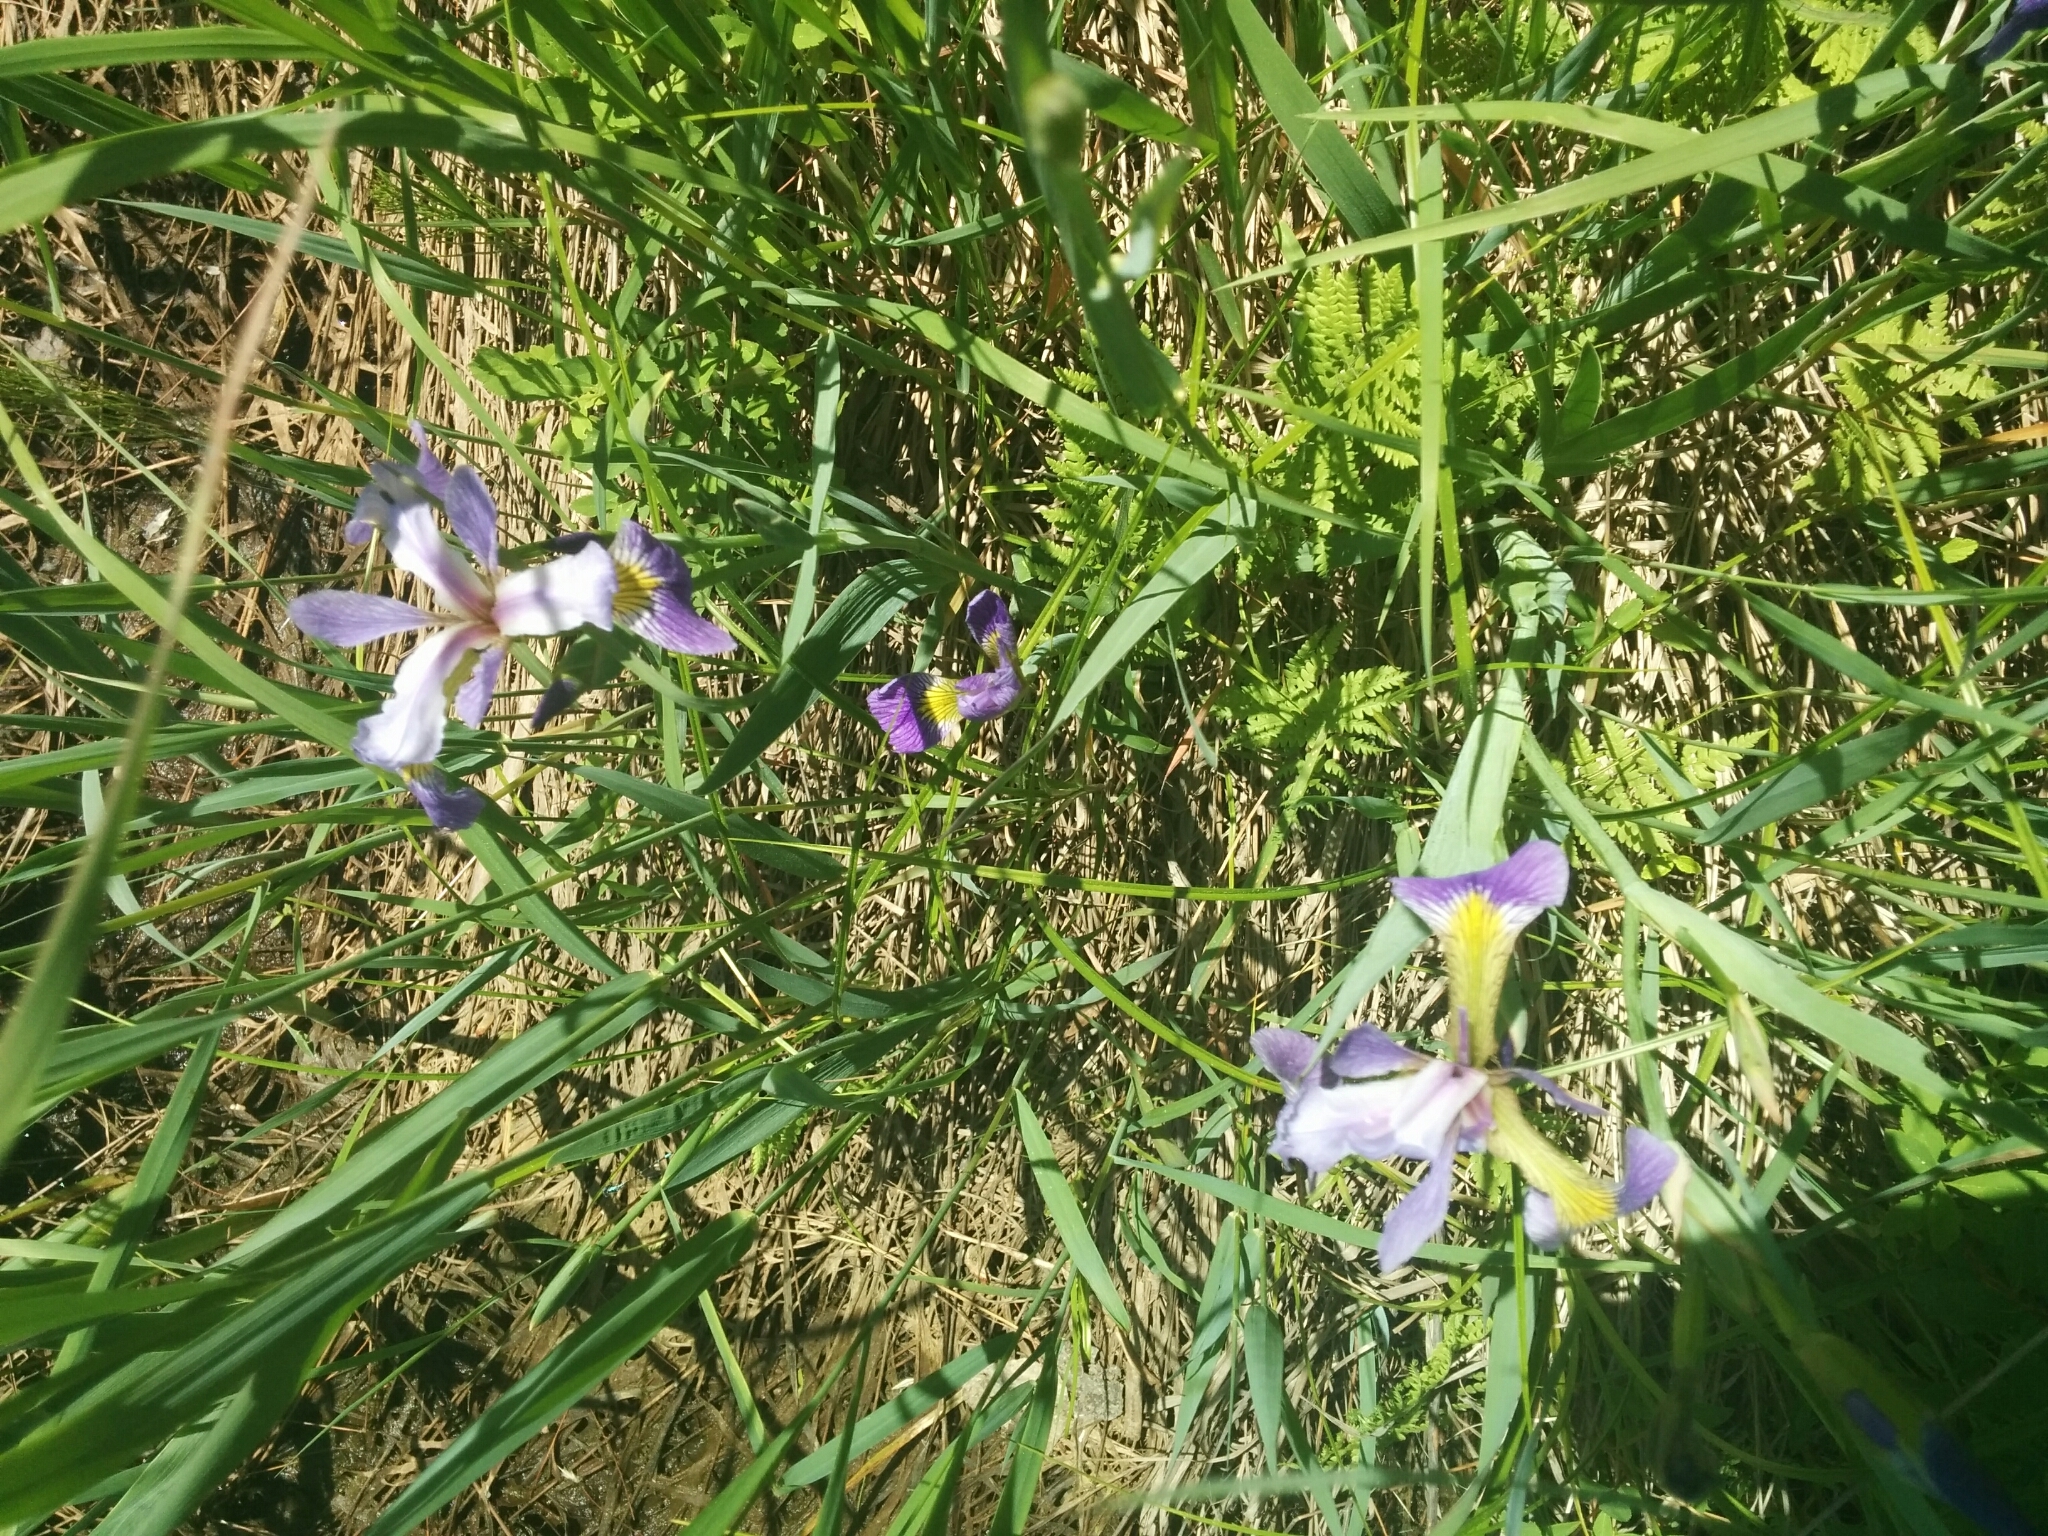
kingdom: Plantae
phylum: Tracheophyta
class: Liliopsida
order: Asparagales
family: Iridaceae
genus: Iris
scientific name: Iris versicolor
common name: Purple iris
